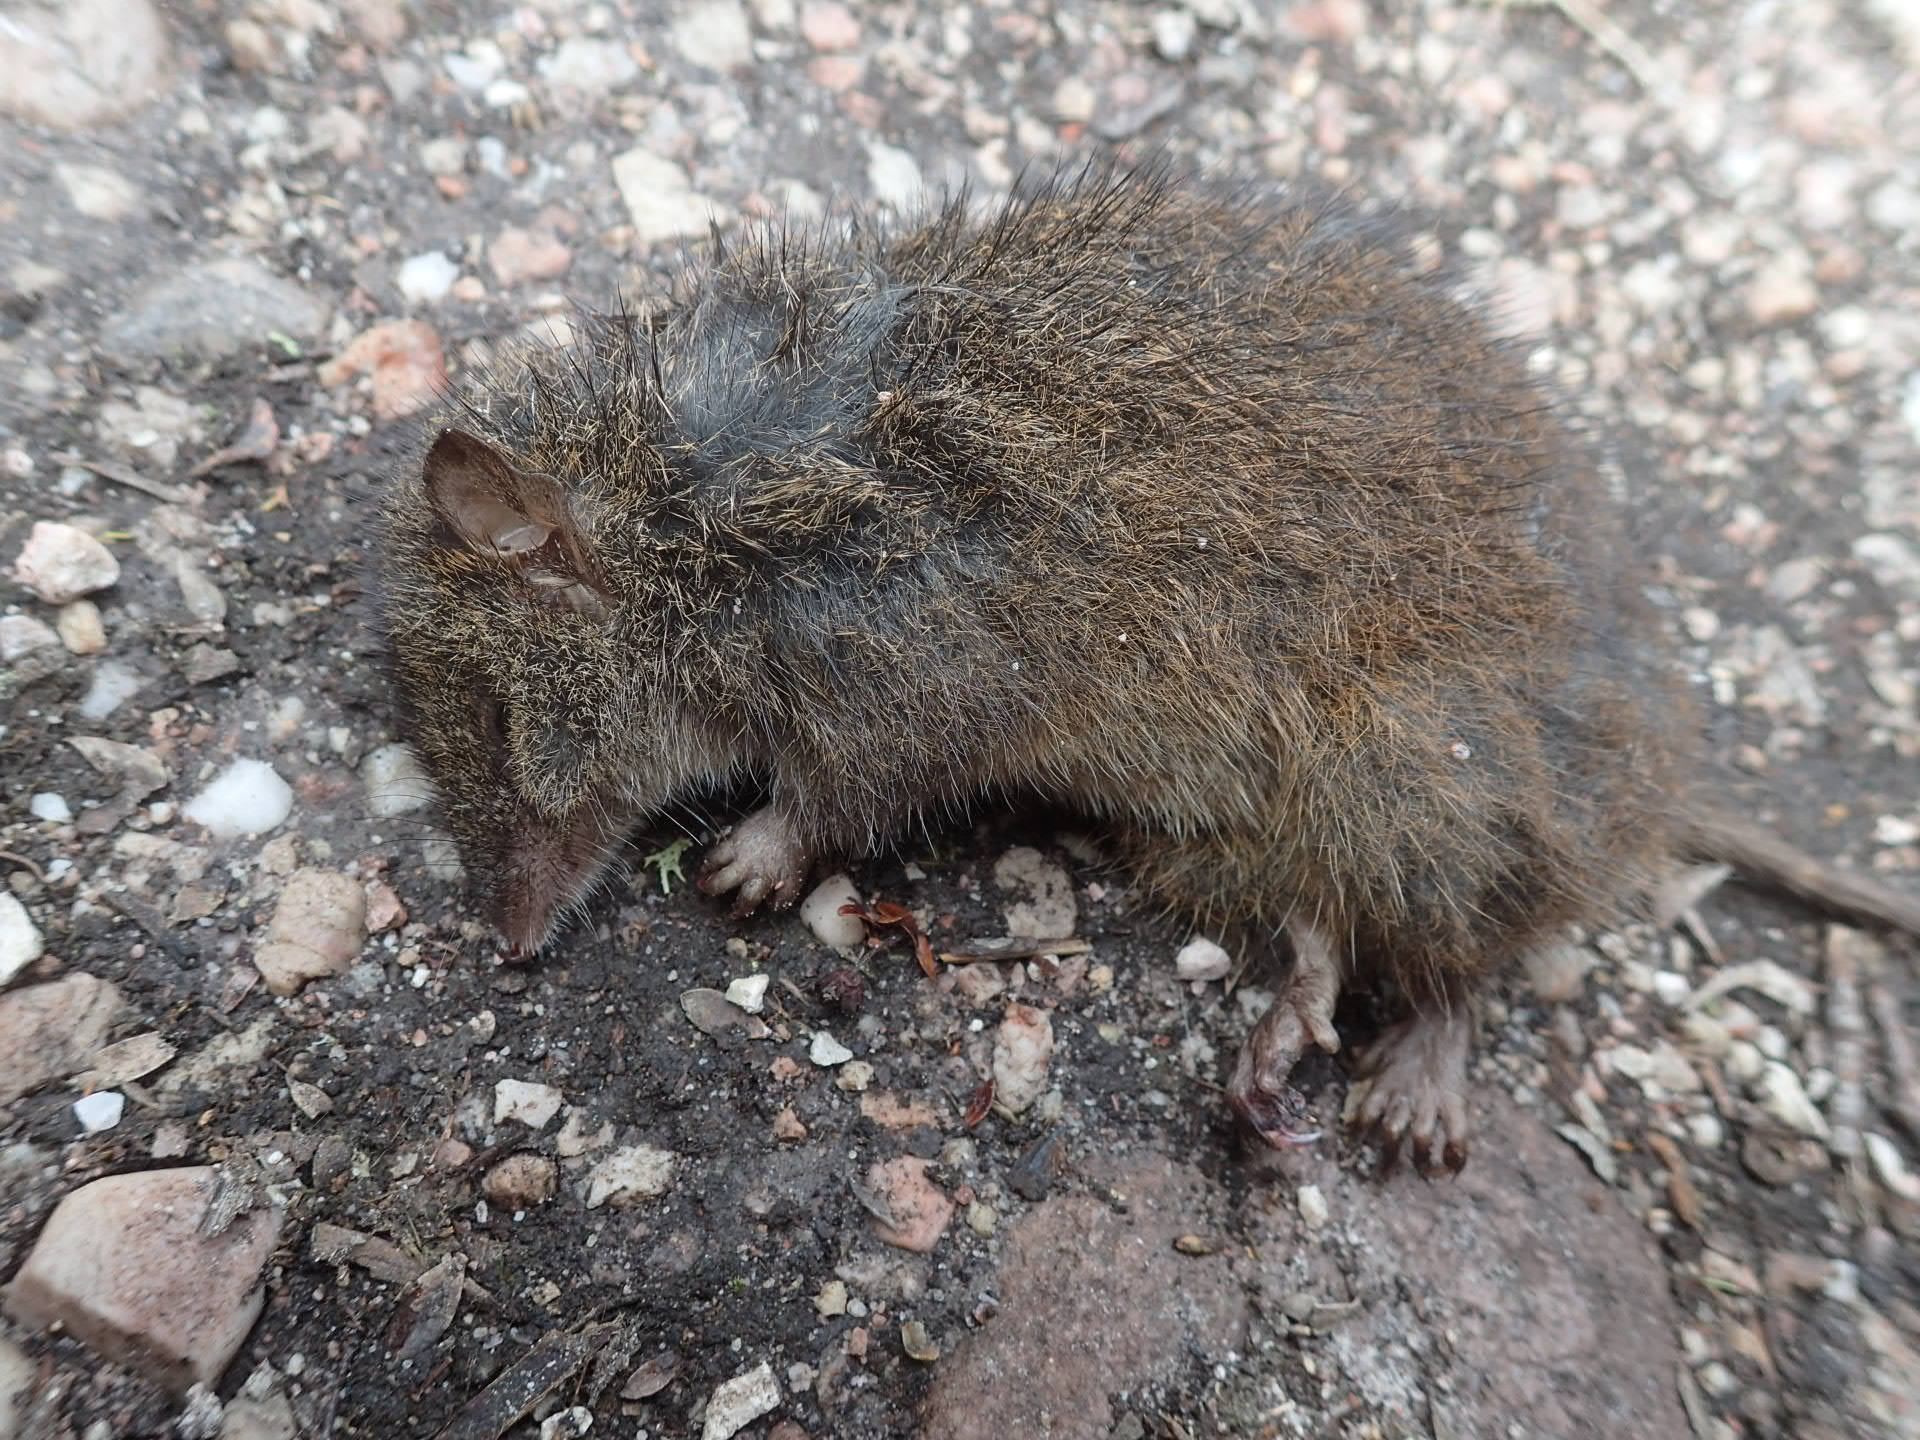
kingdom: Animalia
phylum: Chordata
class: Mammalia
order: Dasyuromorphia
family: Dasyuridae
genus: Antechinus
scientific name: Antechinus minimus
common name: Swamp antechinus
